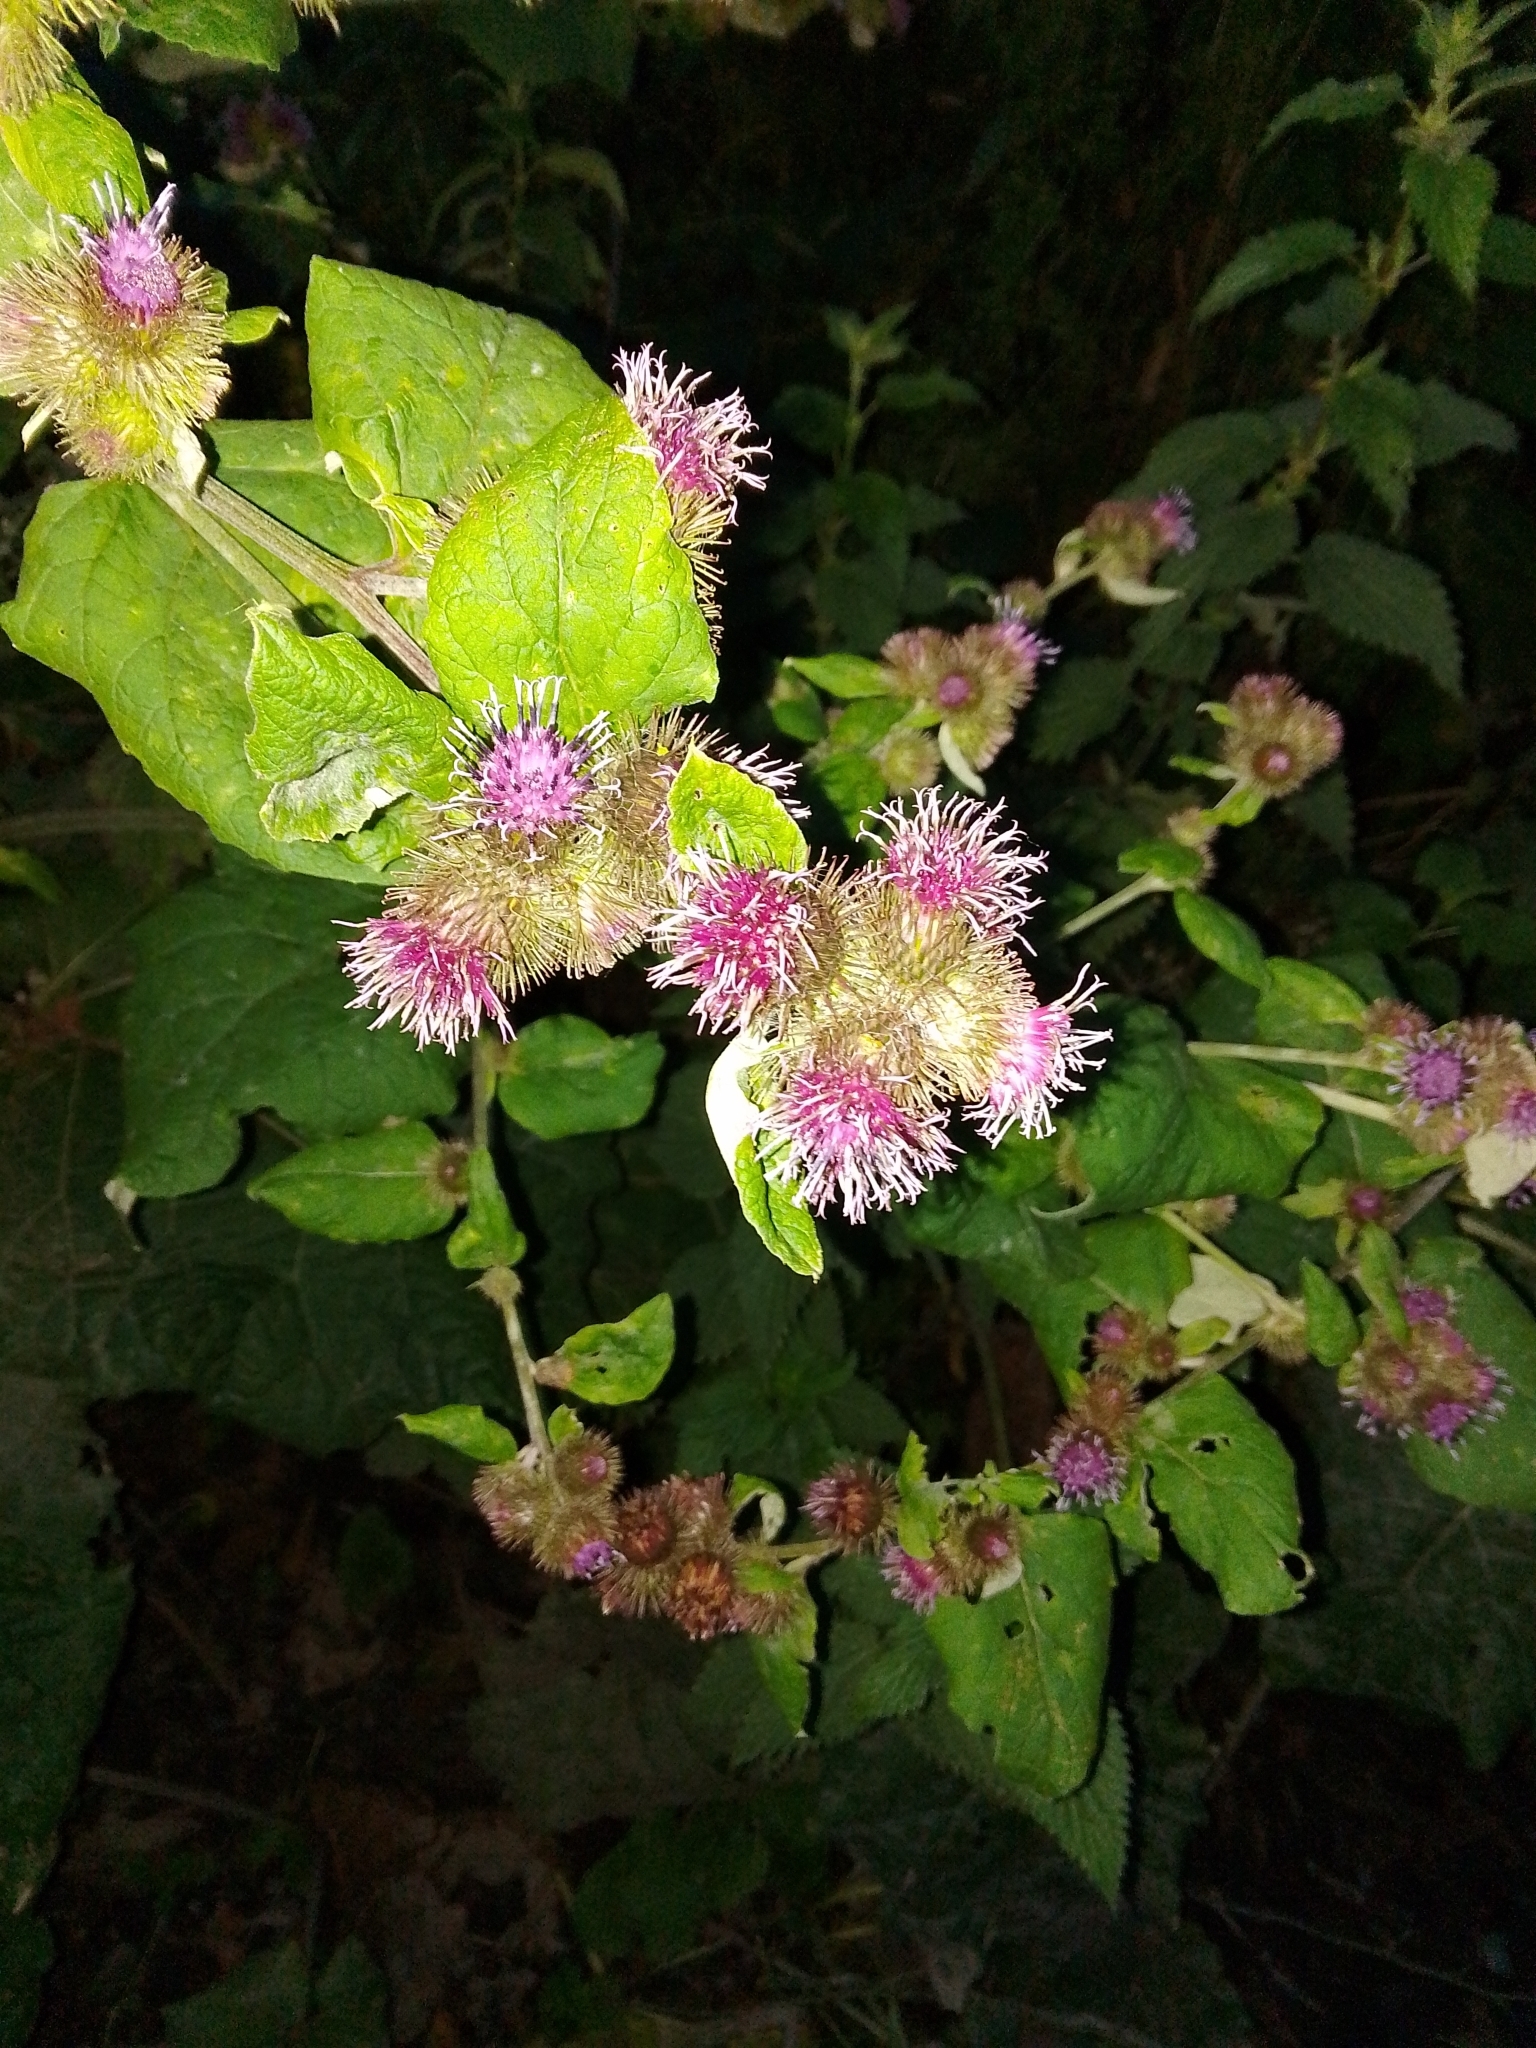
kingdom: Plantae
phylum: Tracheophyta
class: Magnoliopsida
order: Asterales
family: Asteraceae
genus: Arctium
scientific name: Arctium minus
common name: Lesser burdock
